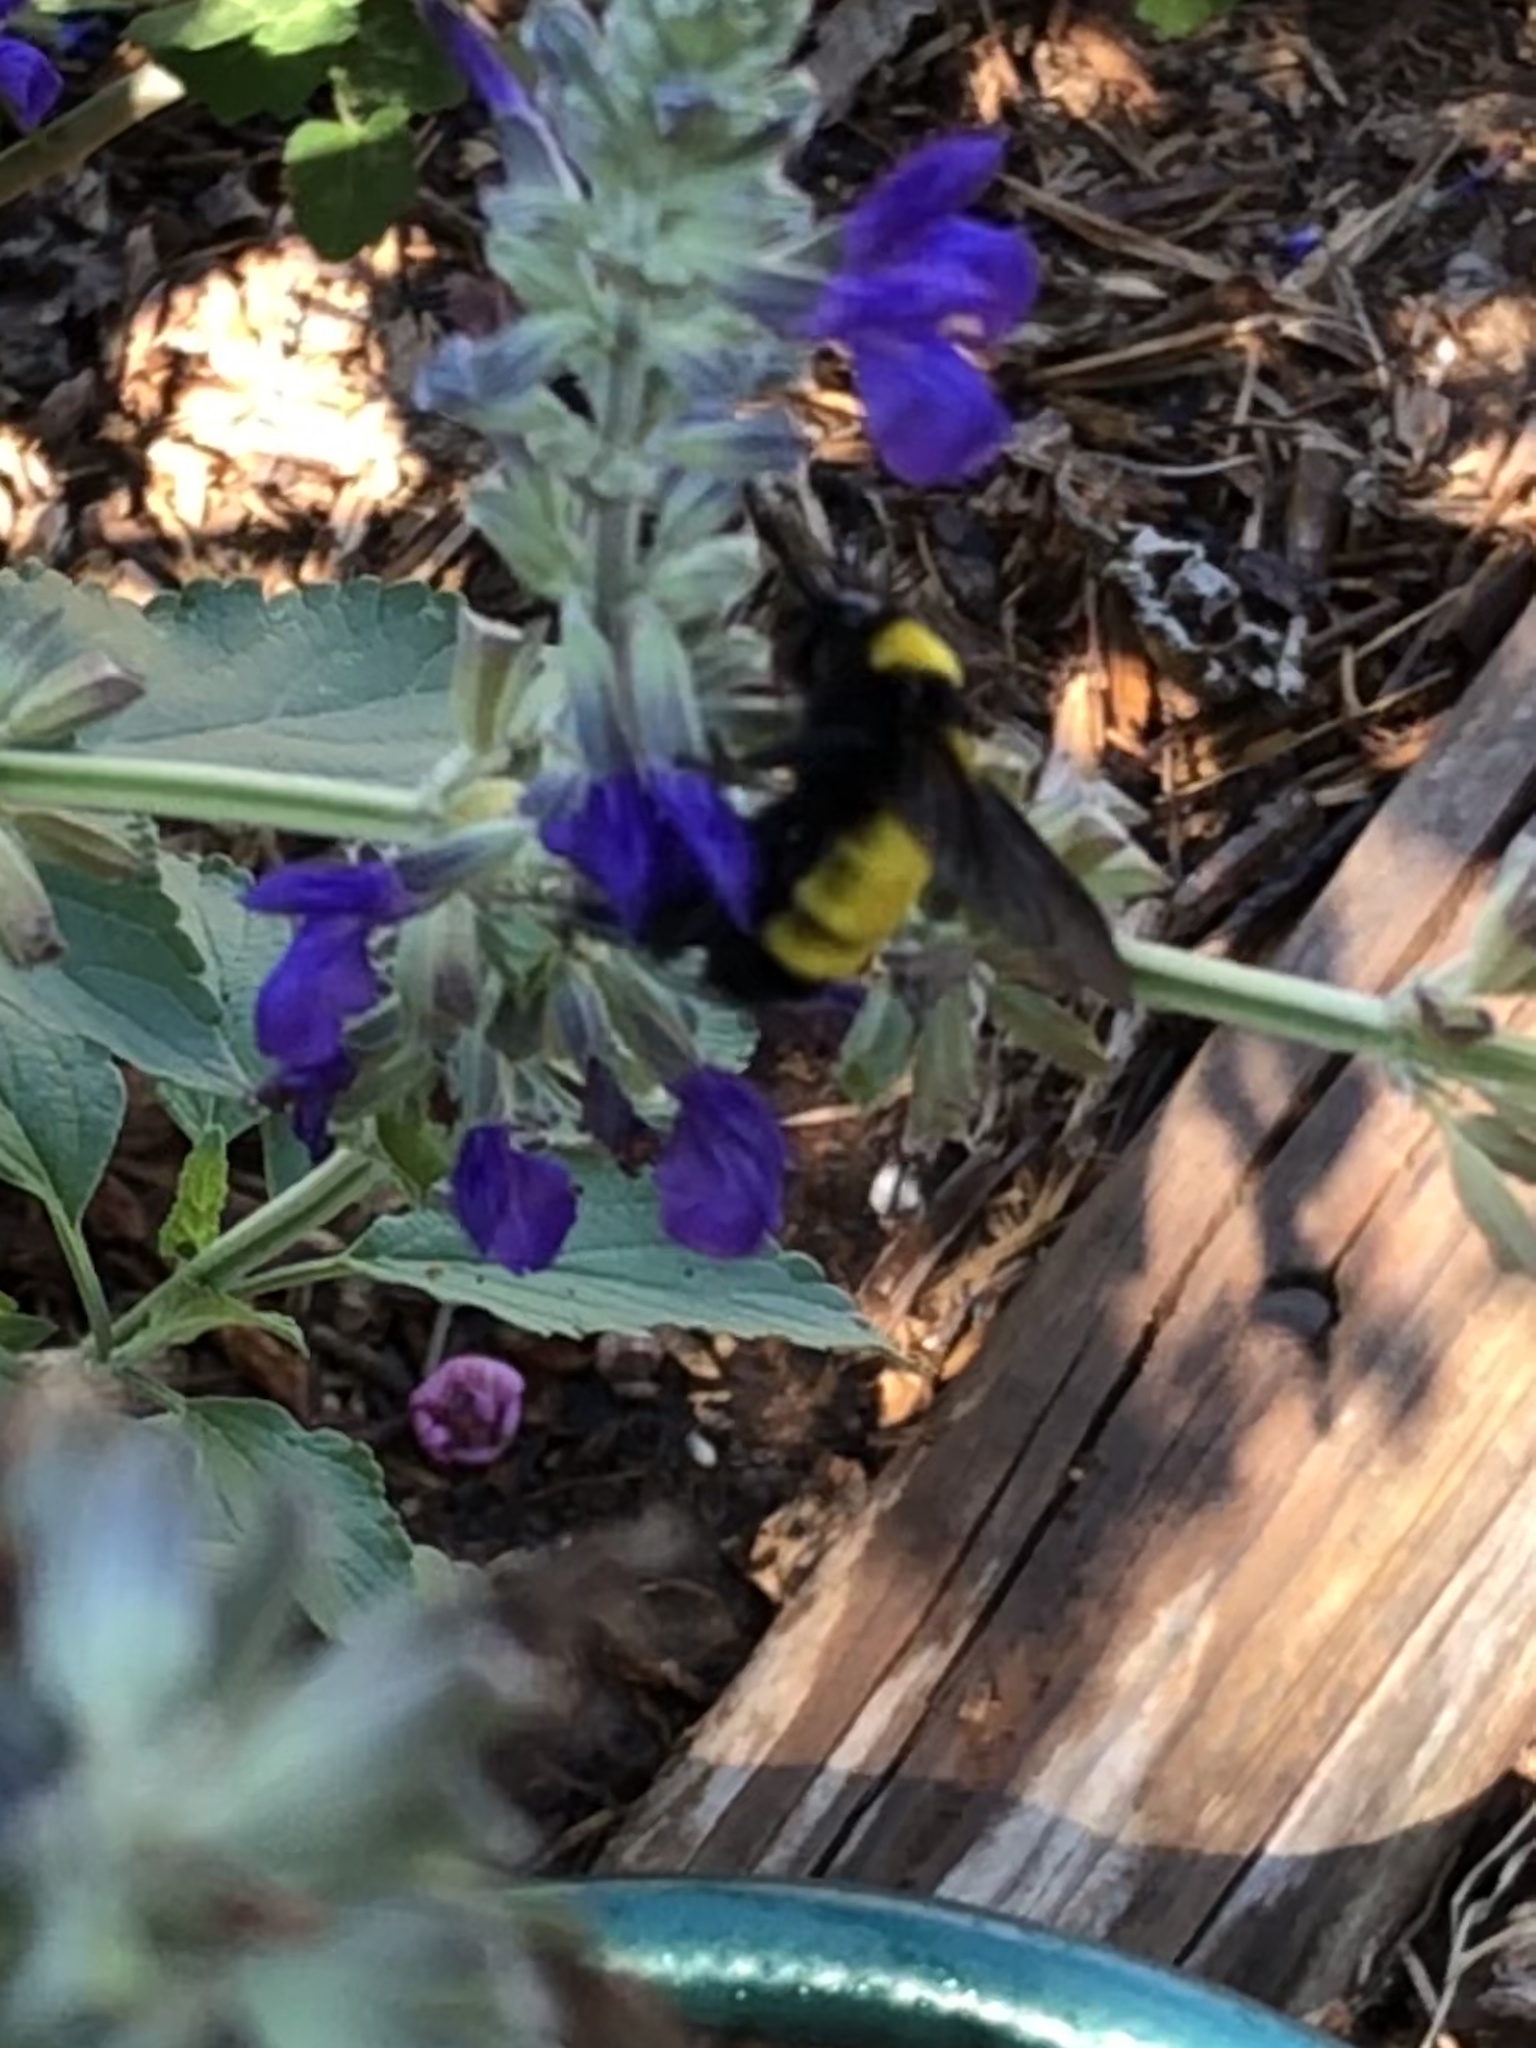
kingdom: Animalia
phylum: Arthropoda
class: Insecta
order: Hymenoptera
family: Apidae
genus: Bombus
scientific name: Bombus sonorus
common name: Sonoran bumble bee
